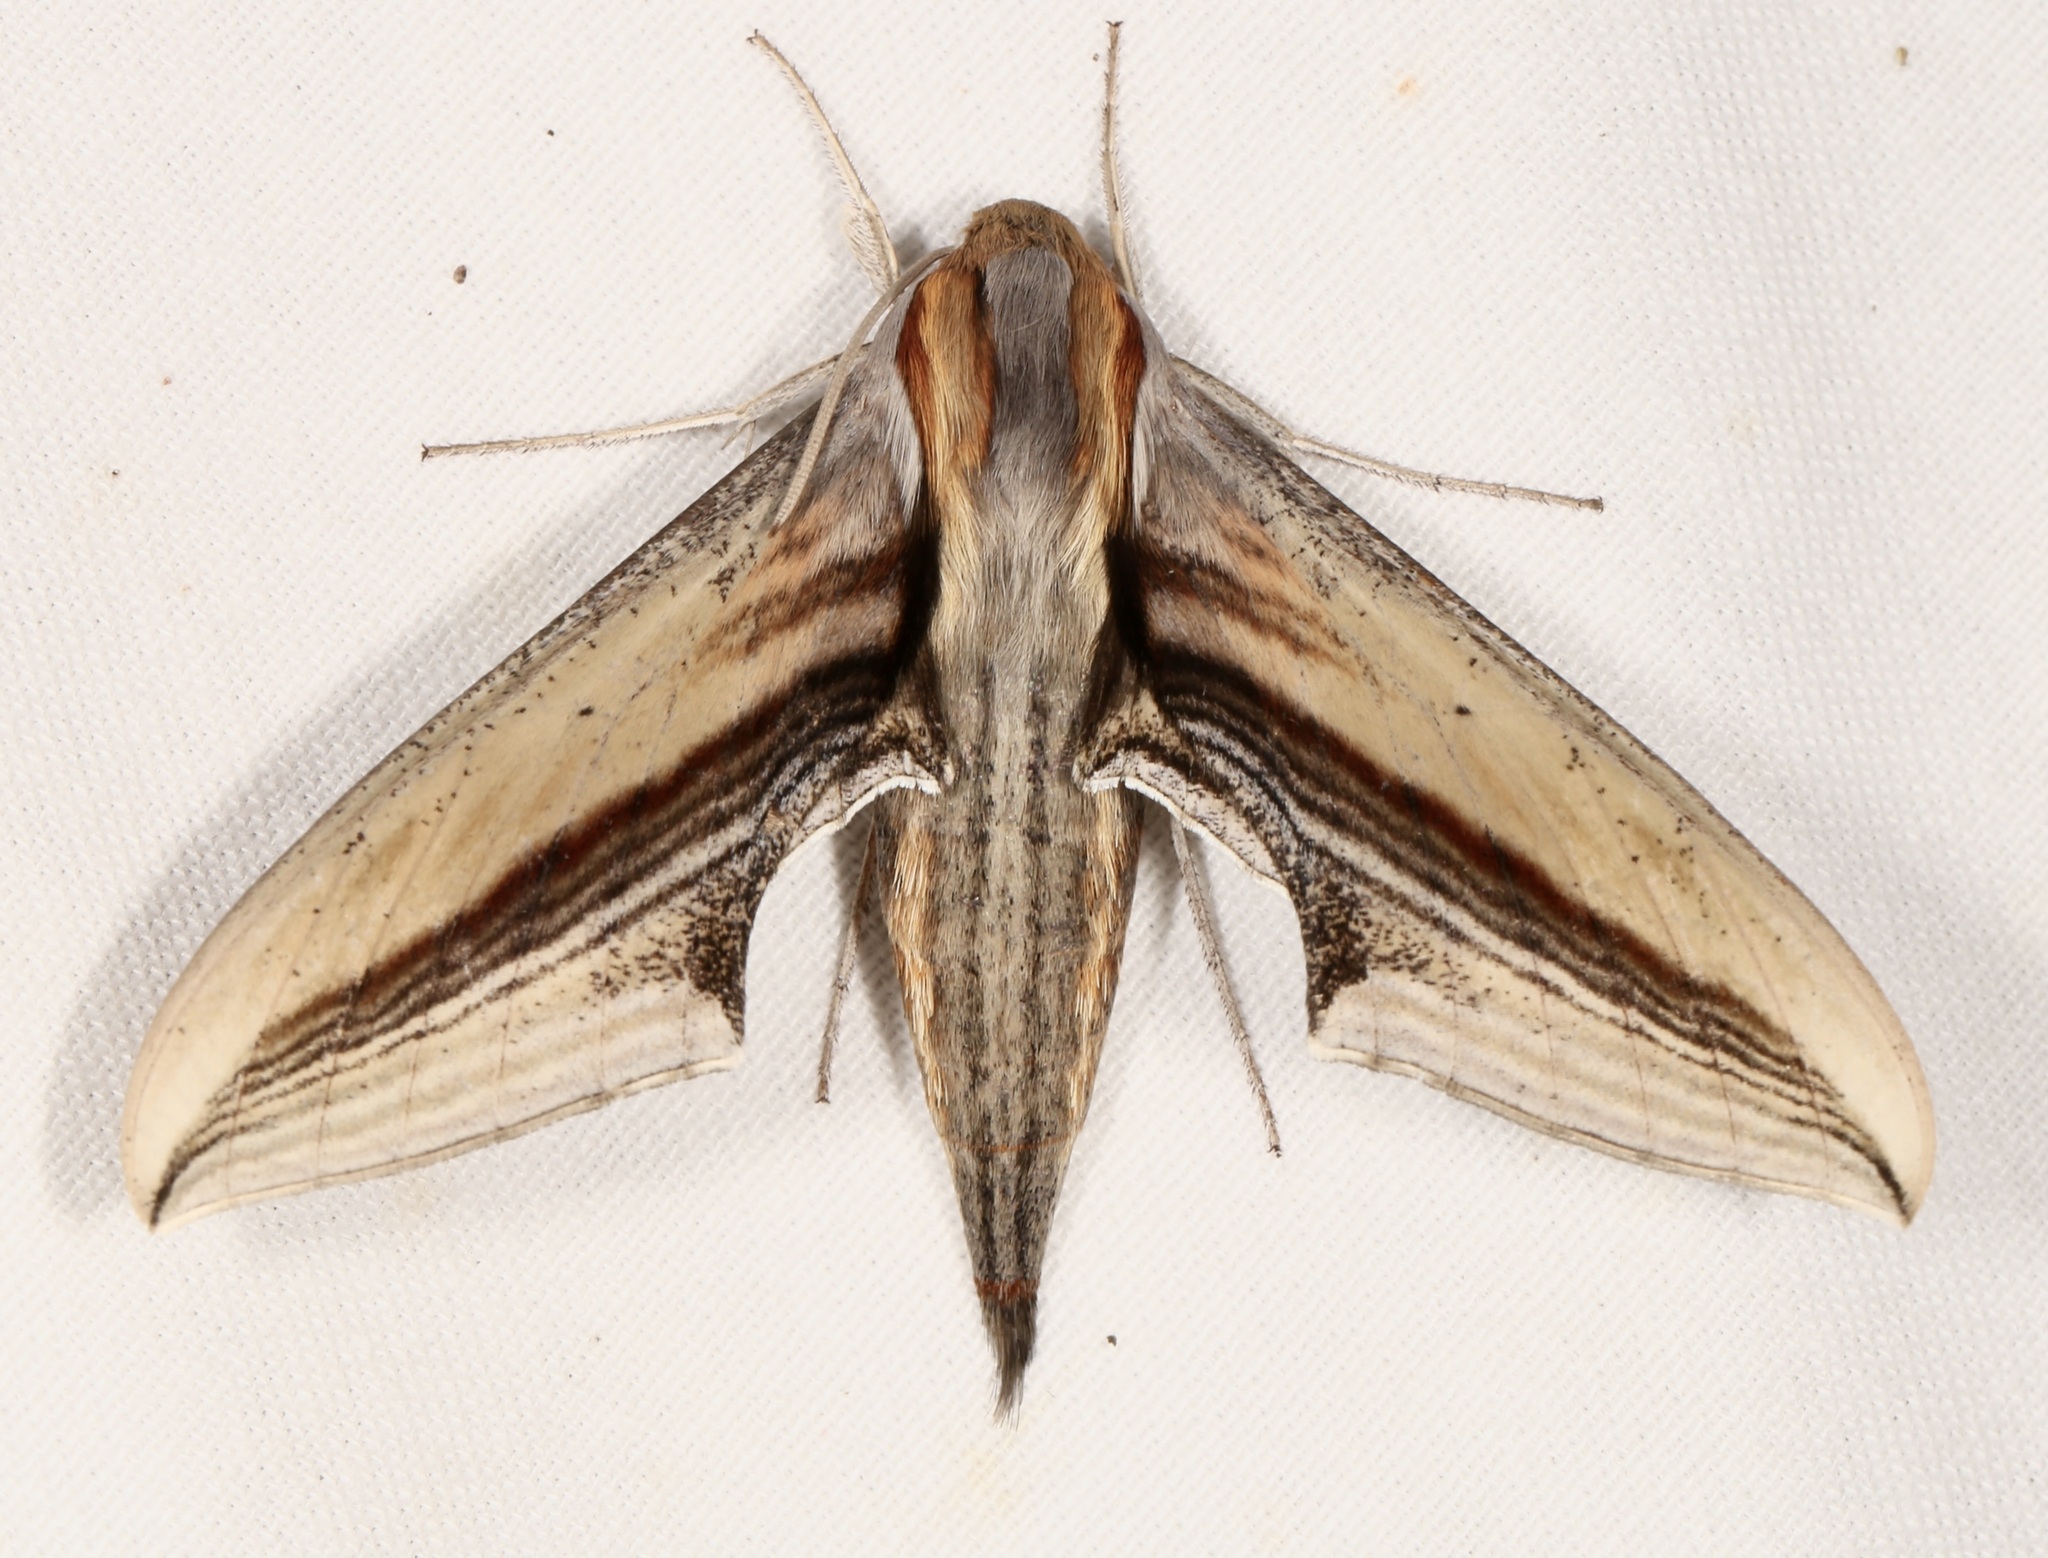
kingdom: Animalia
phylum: Arthropoda
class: Insecta
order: Lepidoptera
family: Sphingidae
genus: Xylophanes
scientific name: Xylophanes falco
